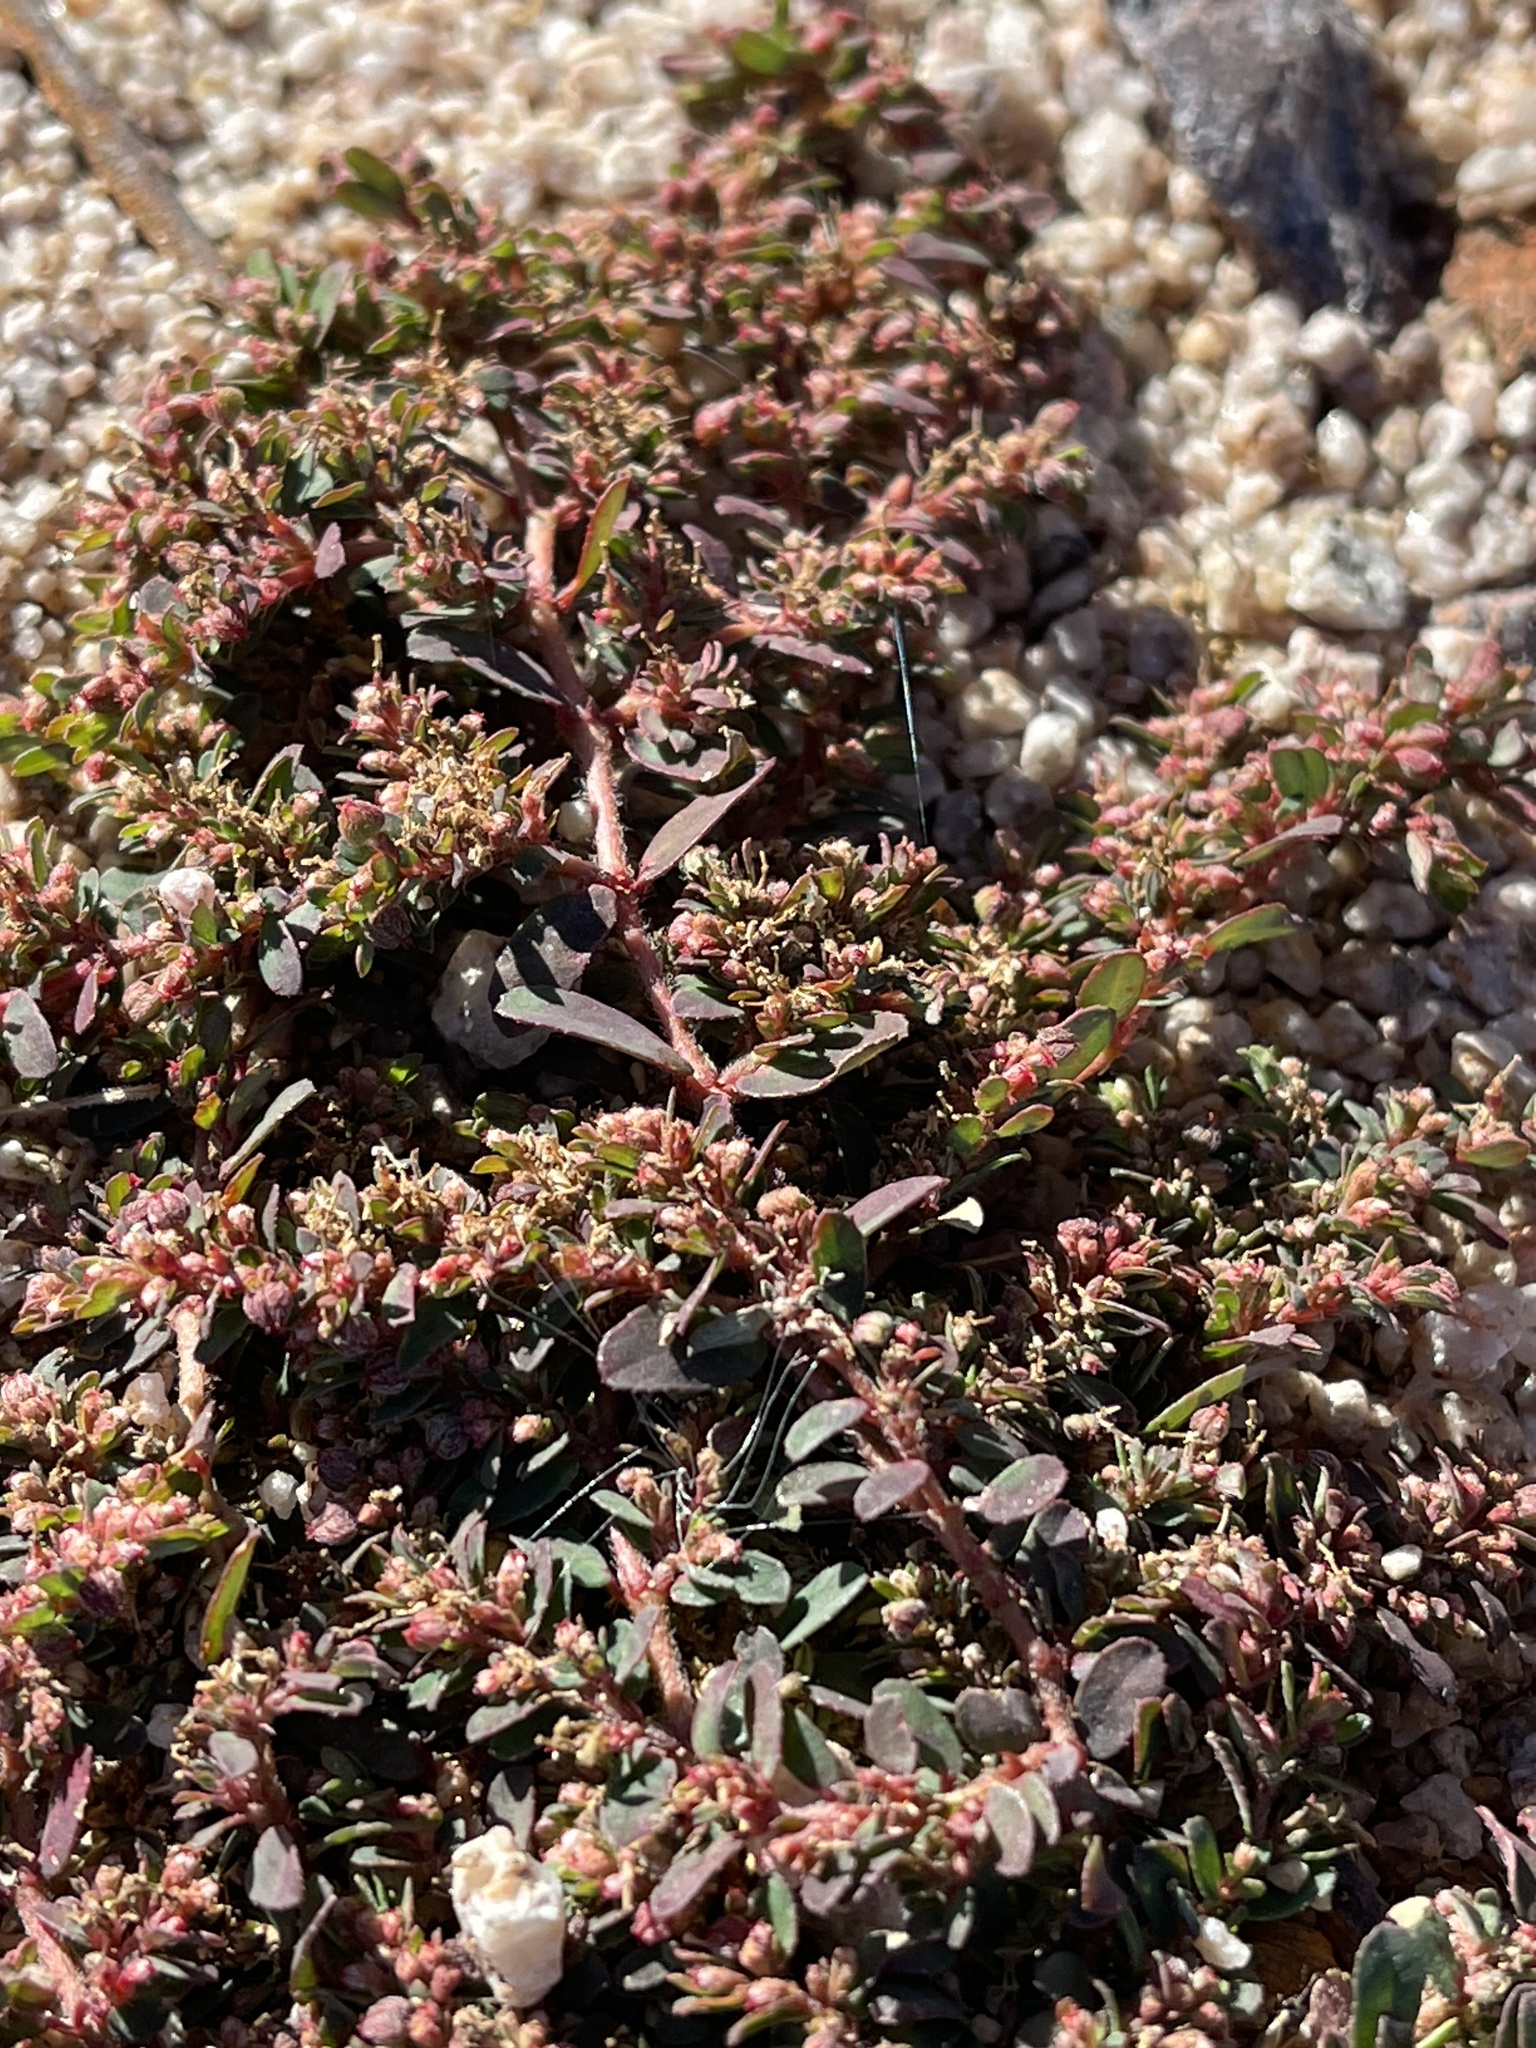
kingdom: Plantae
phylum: Tracheophyta
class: Magnoliopsida
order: Malpighiales
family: Euphorbiaceae
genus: Euphorbia
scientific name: Euphorbia maculata
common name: Spotted spurge
